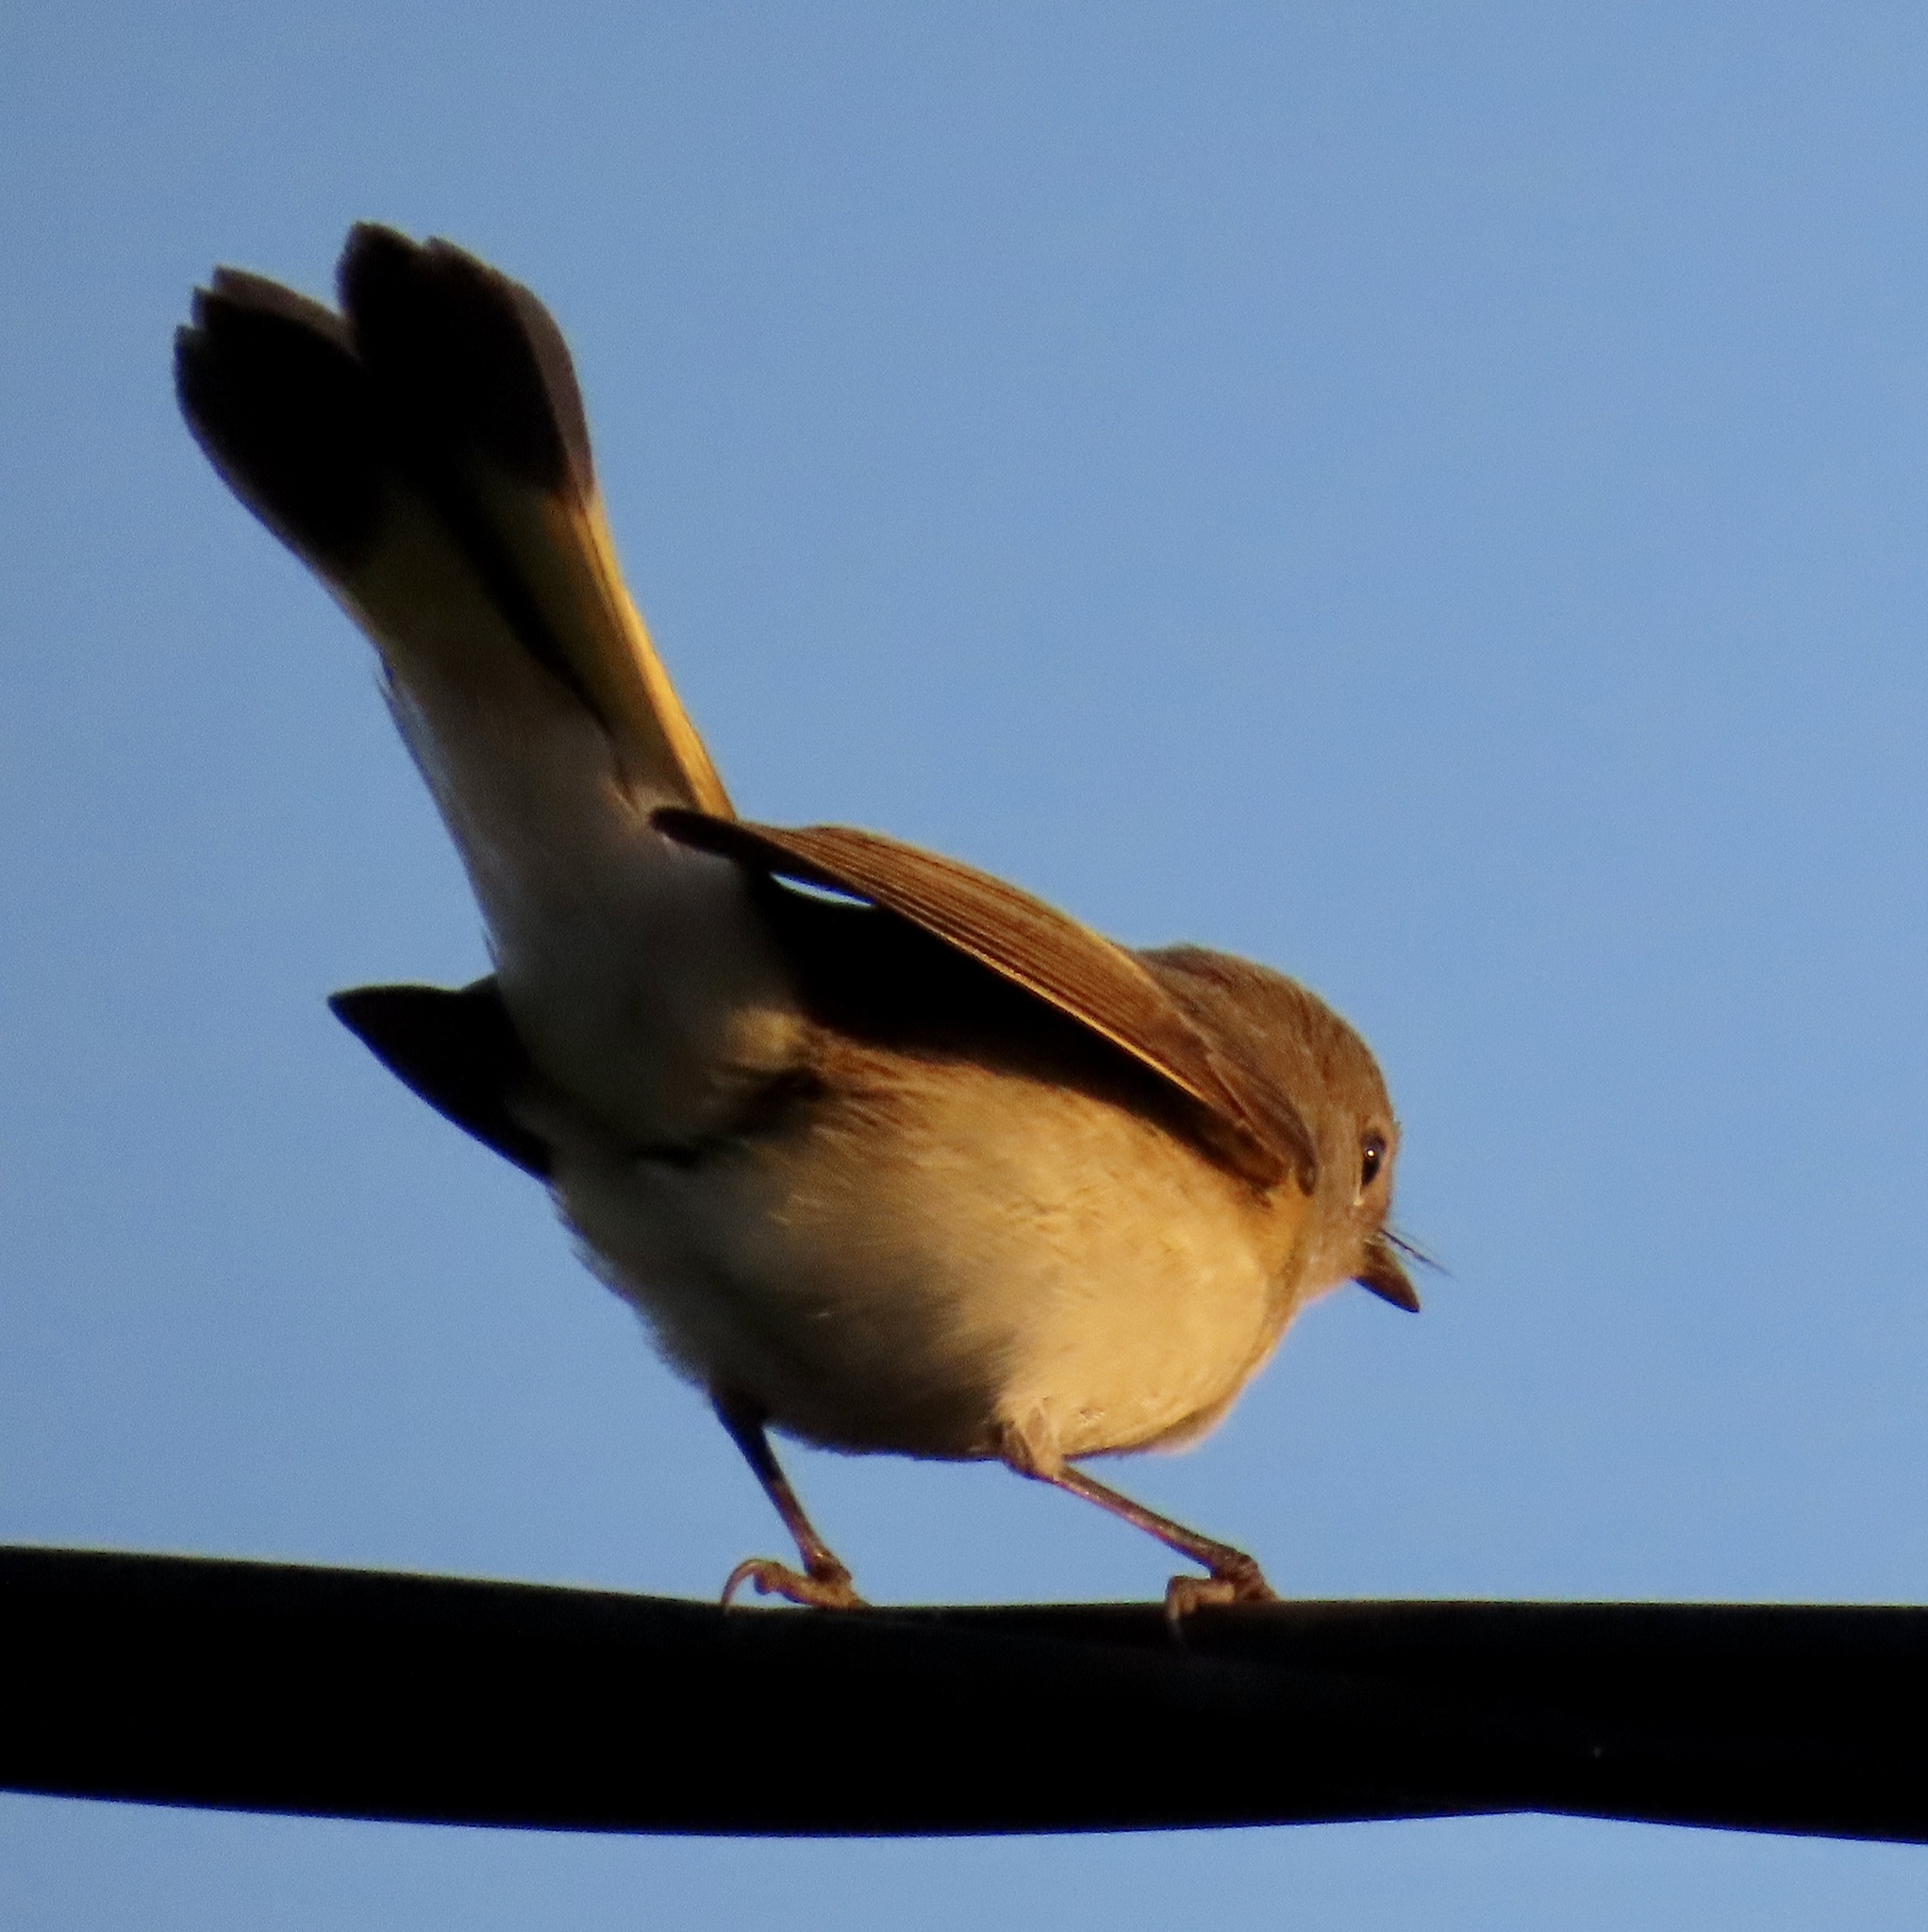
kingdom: Animalia
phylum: Chordata
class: Aves
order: Passeriformes
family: Parulidae
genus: Setophaga
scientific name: Setophaga ruticilla
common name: American redstart
